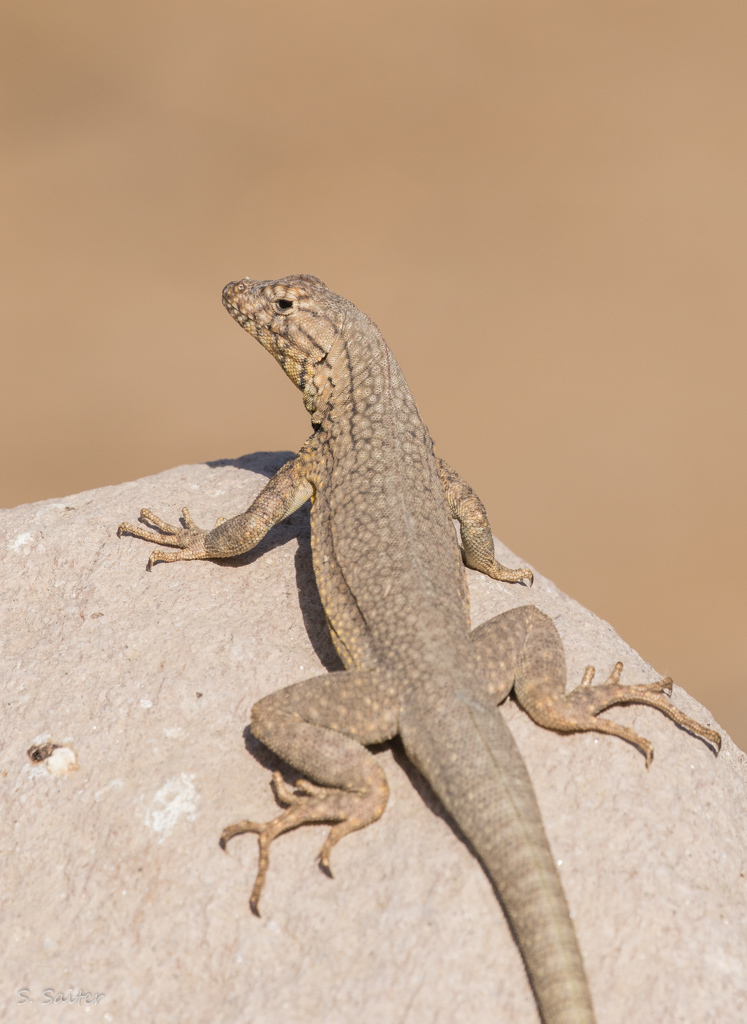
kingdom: Animalia
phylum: Chordata
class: Squamata
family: Tropiduridae
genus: Microlophus
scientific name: Microlophus yanezi
